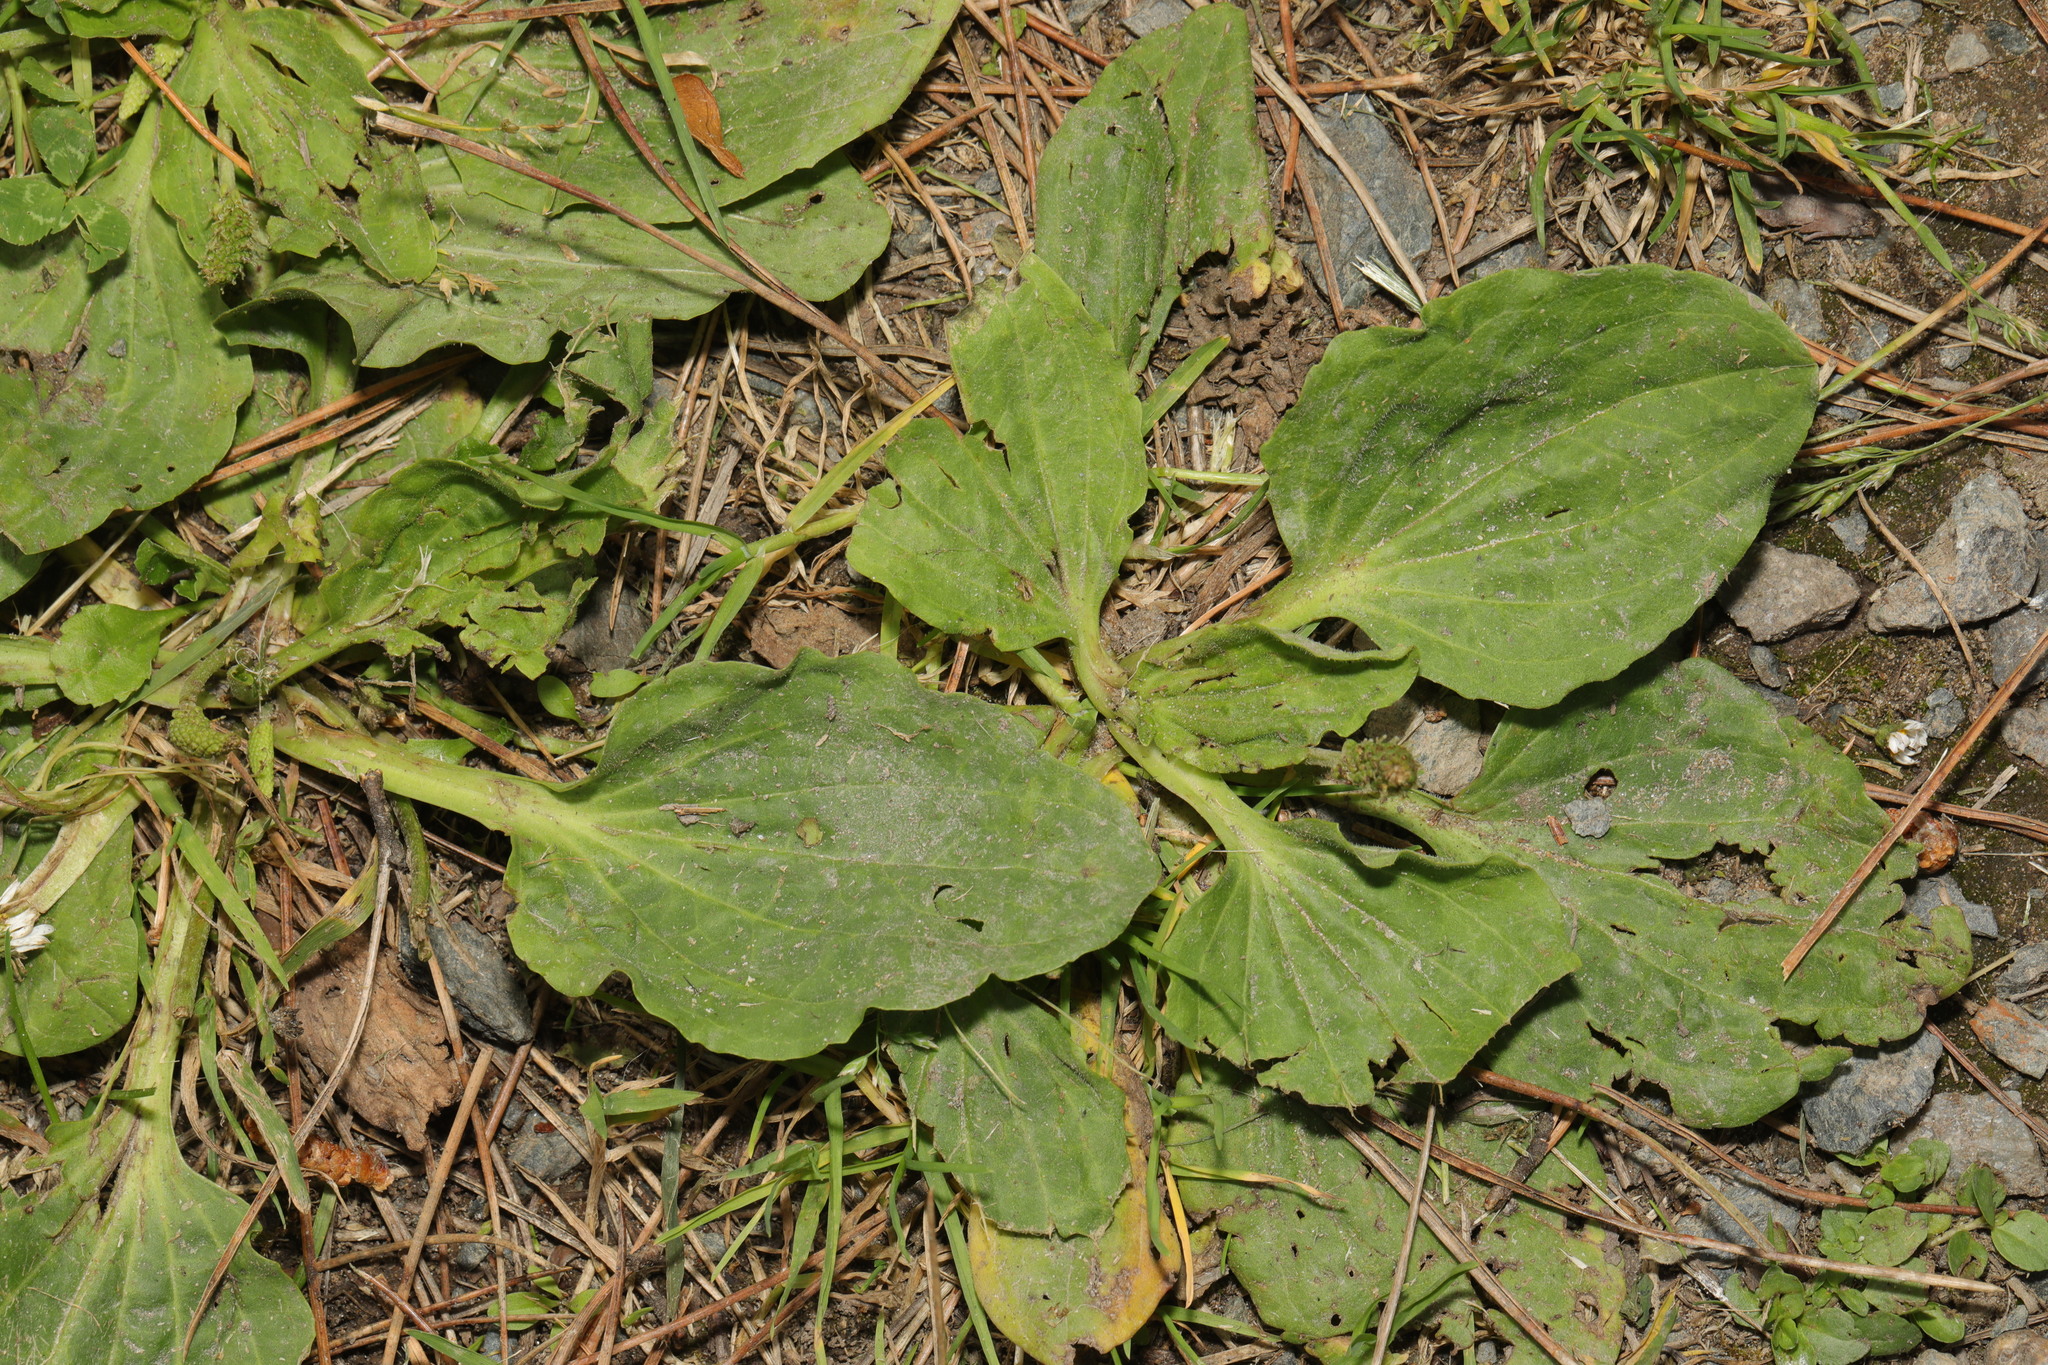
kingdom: Plantae
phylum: Tracheophyta
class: Magnoliopsida
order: Lamiales
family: Plantaginaceae
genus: Plantago
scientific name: Plantago major
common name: Common plantain
